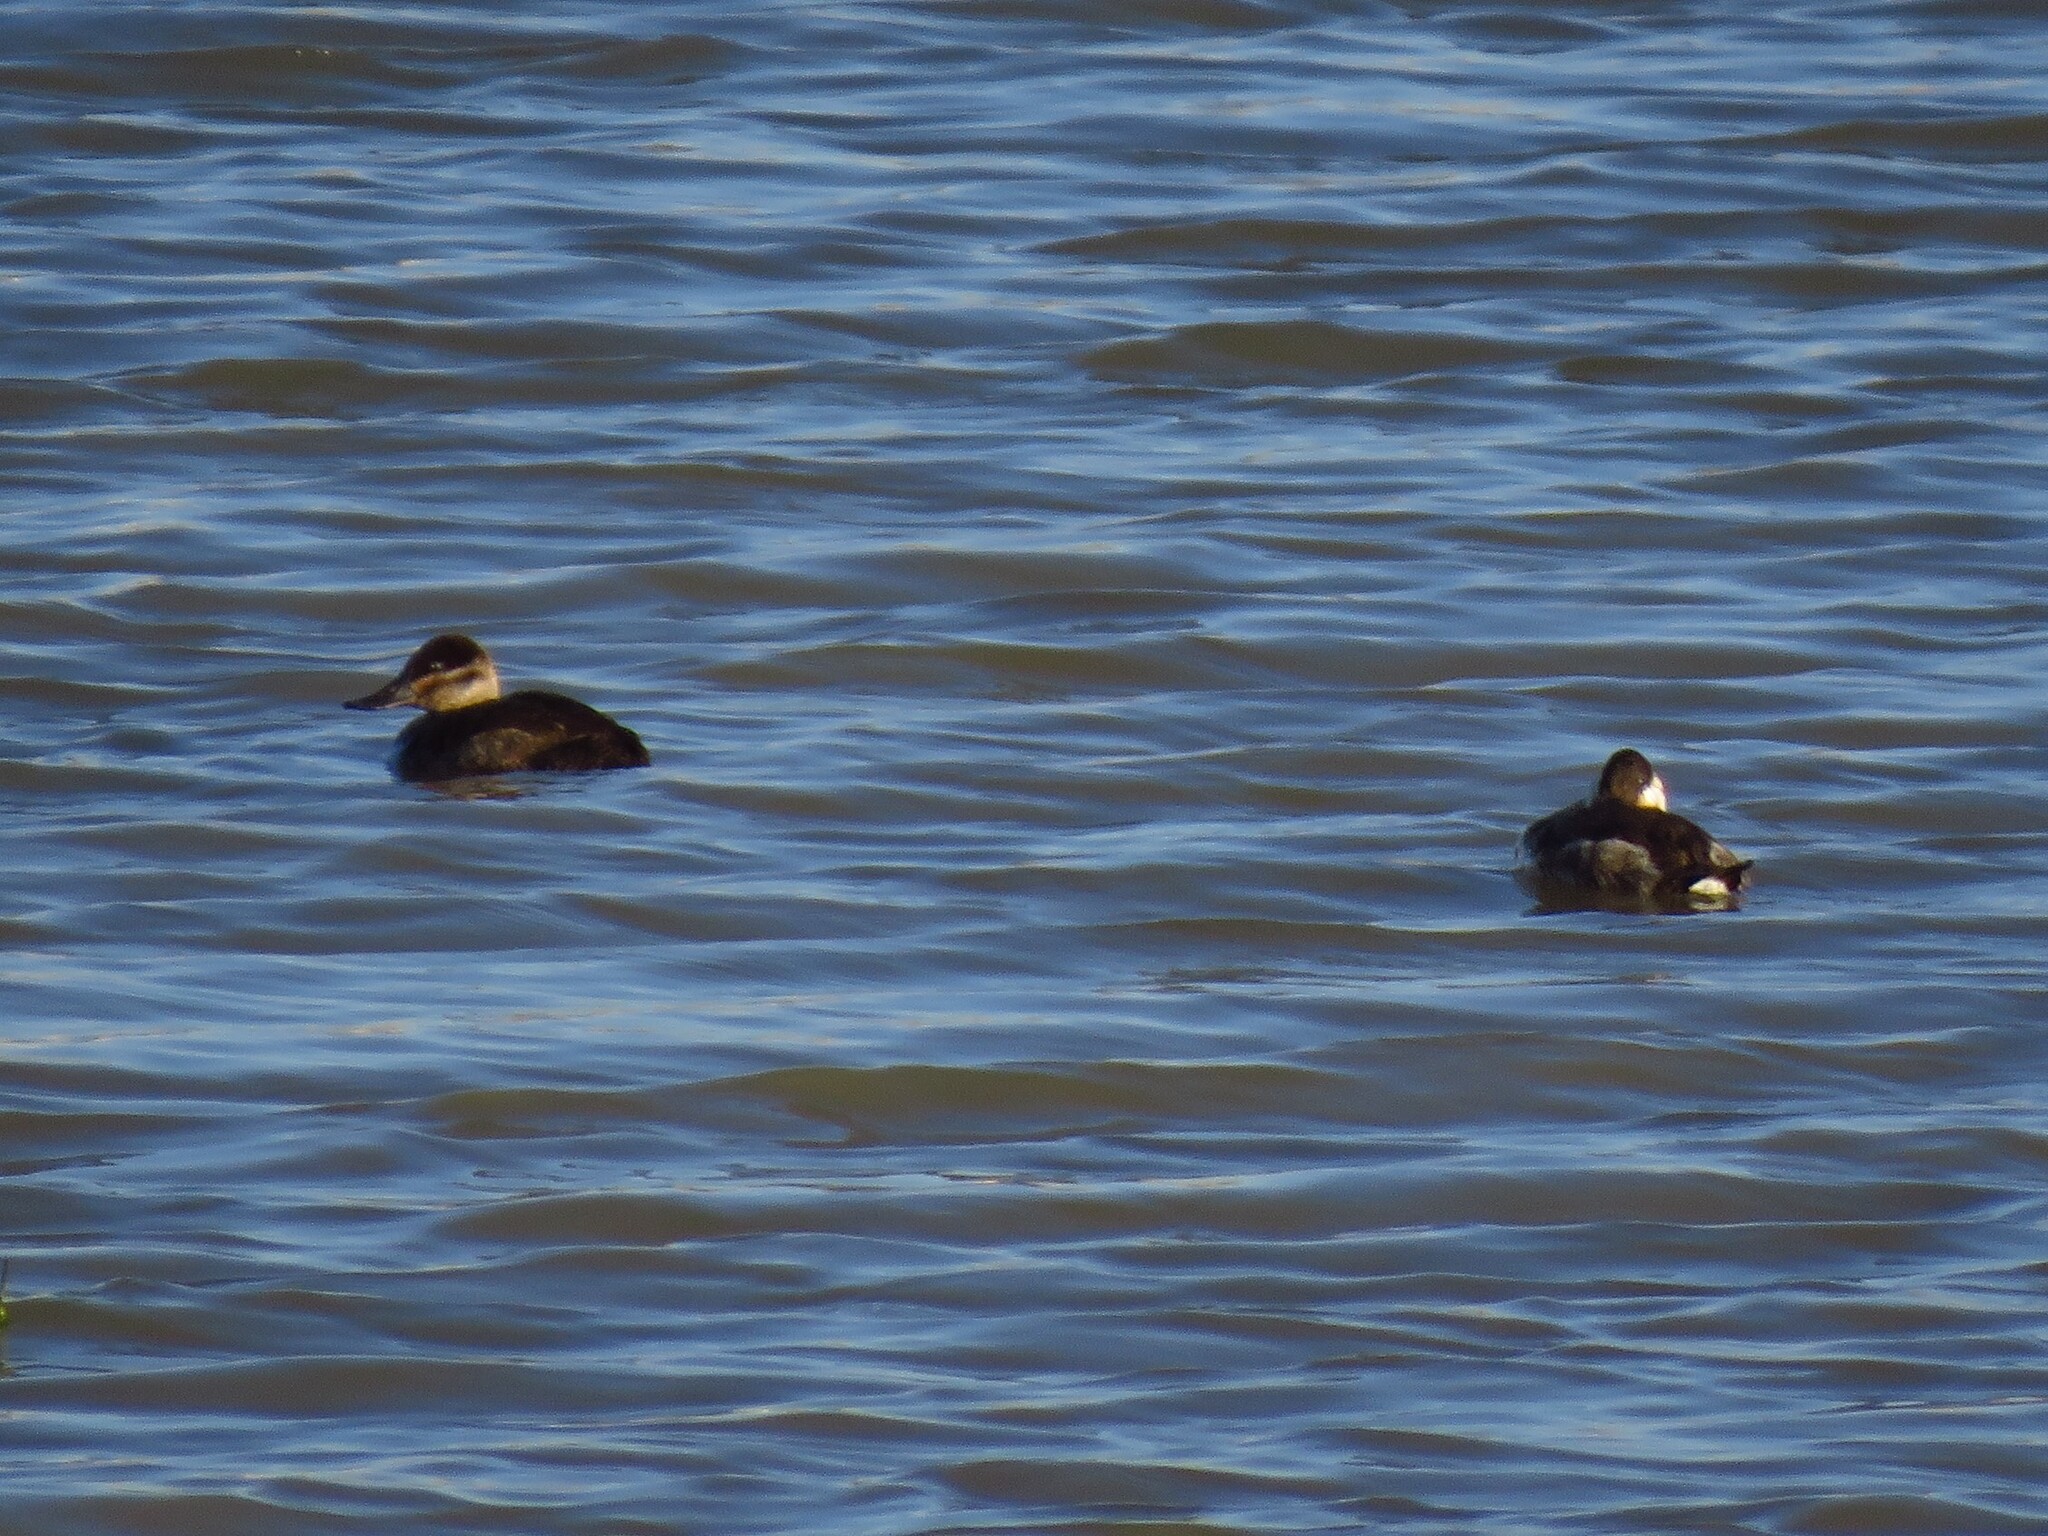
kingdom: Animalia
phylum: Chordata
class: Aves
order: Anseriformes
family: Anatidae
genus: Oxyura
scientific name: Oxyura jamaicensis
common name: Ruddy duck
